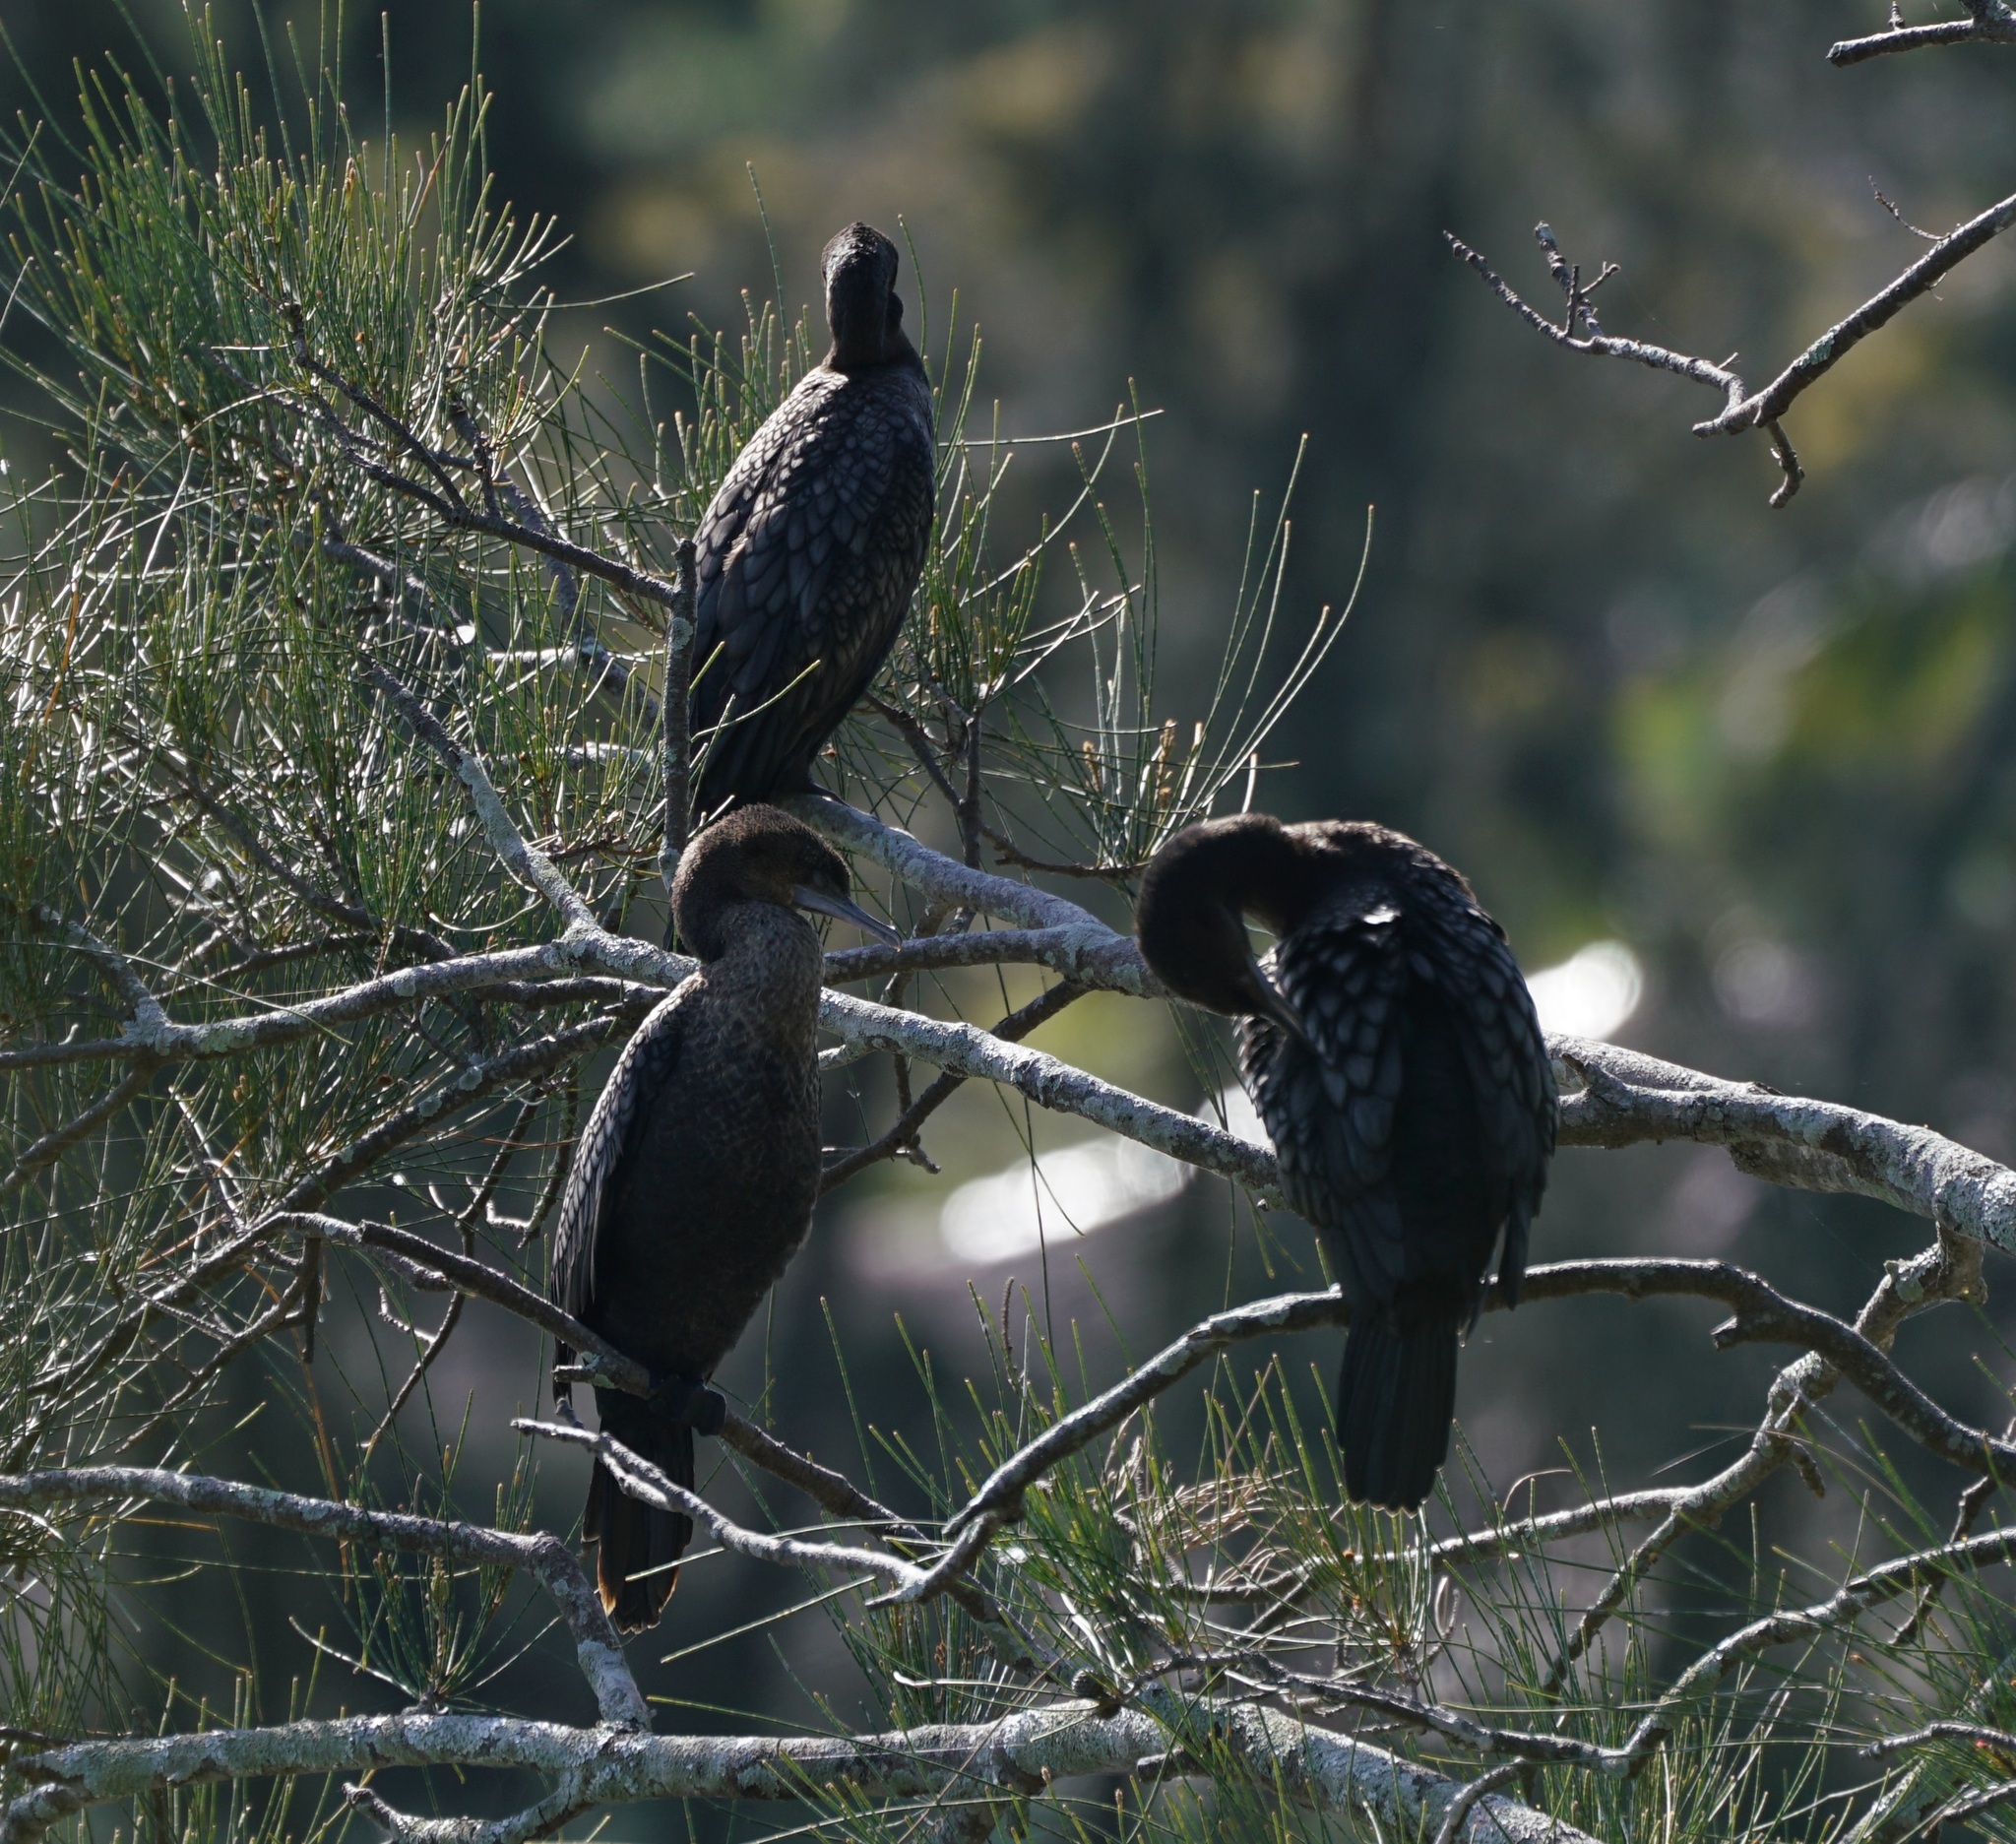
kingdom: Animalia
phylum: Chordata
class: Aves
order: Suliformes
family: Phalacrocoracidae
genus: Phalacrocorax
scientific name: Phalacrocorax sulcirostris
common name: Little black cormorant
